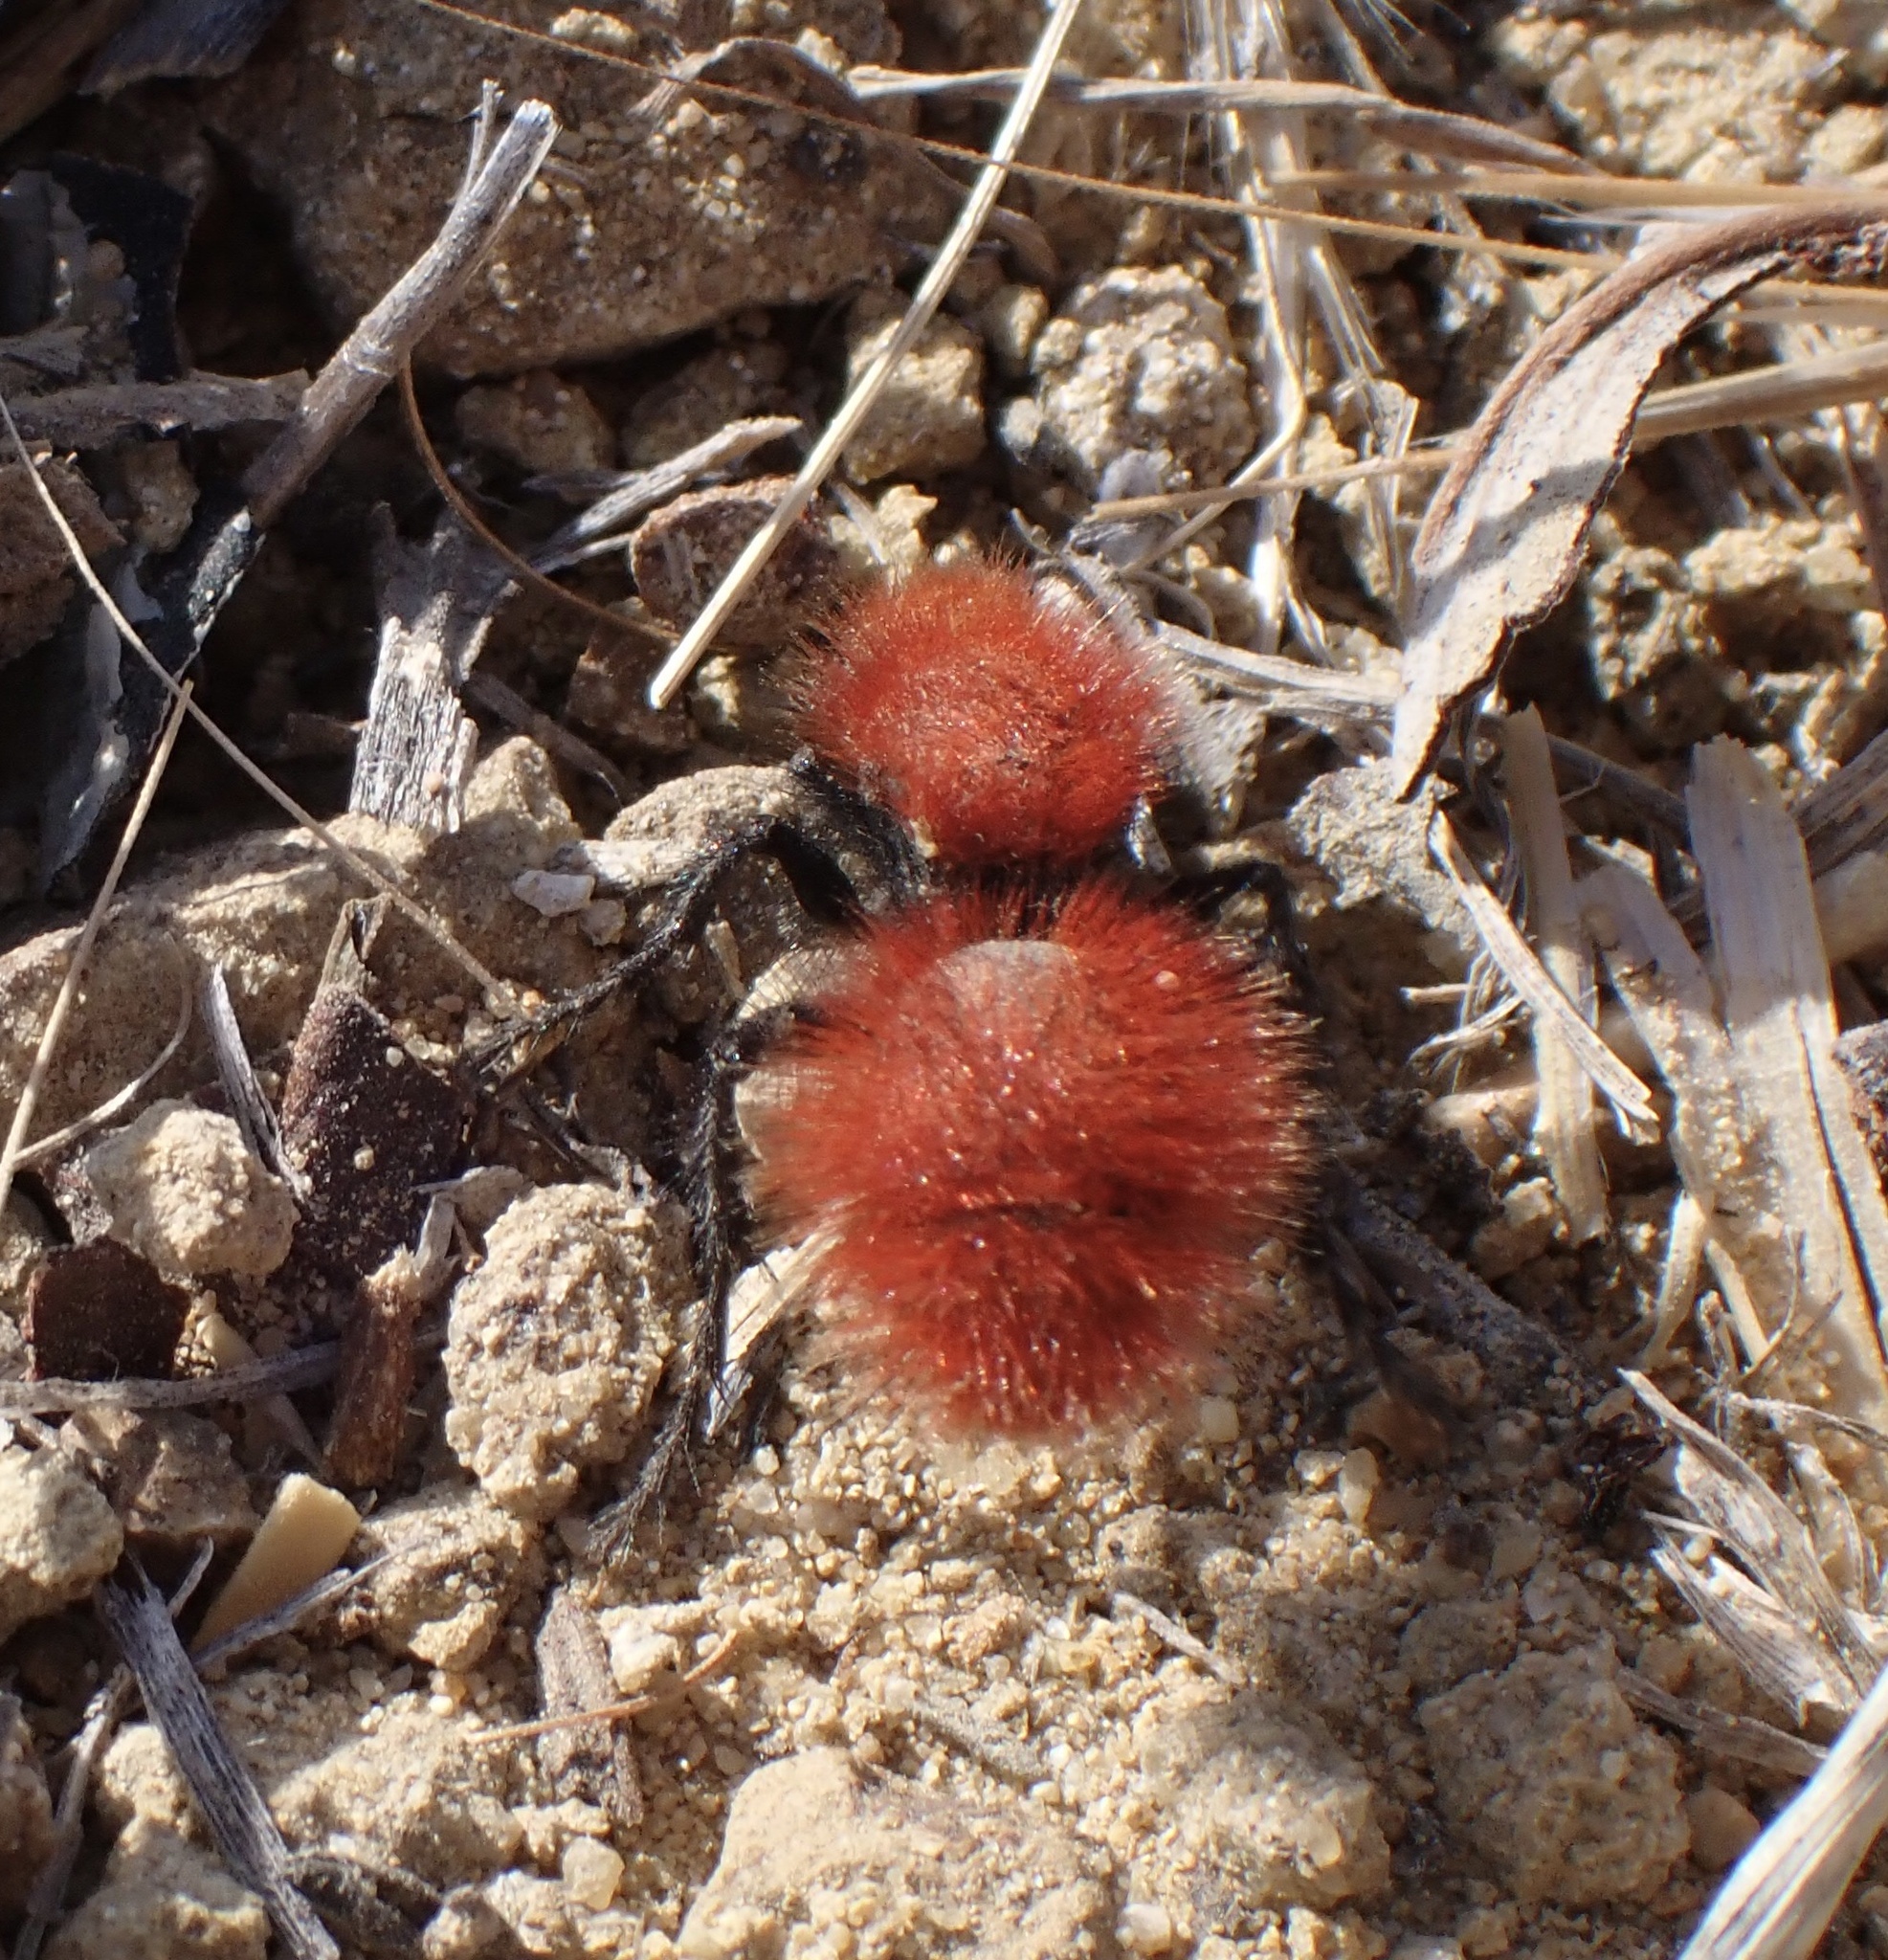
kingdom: Animalia
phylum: Arthropoda
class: Insecta
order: Hymenoptera
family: Mutillidae
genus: Dasymutilla
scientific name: Dasymutilla flammifera
